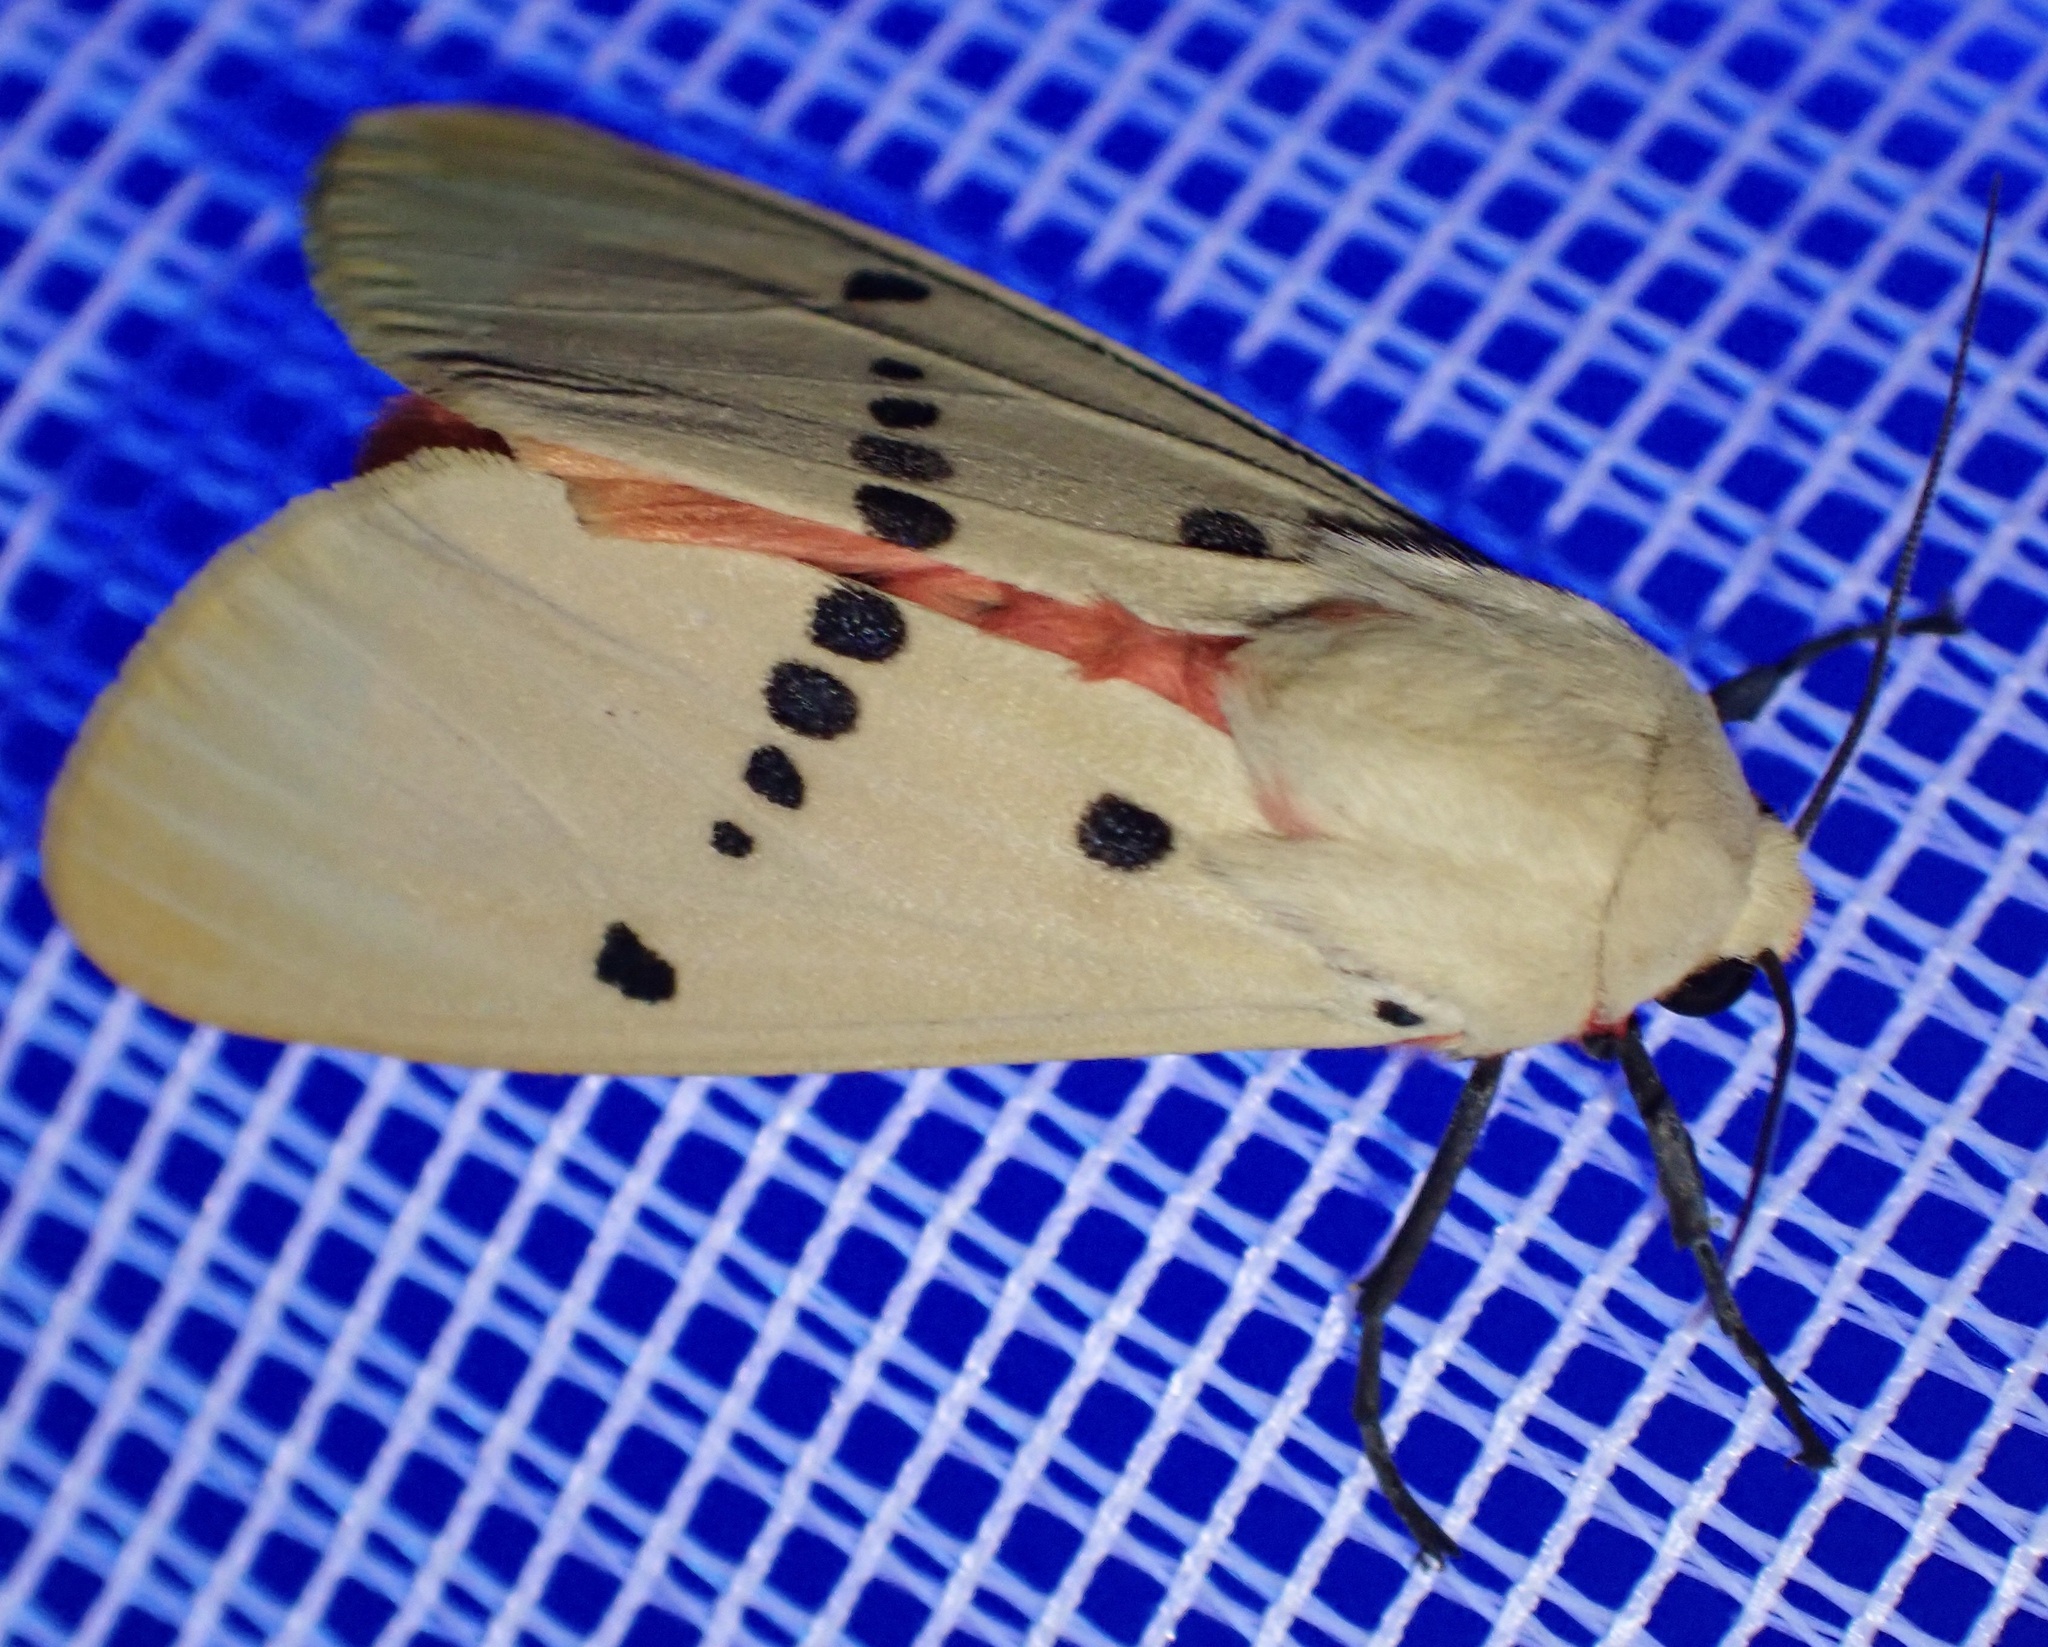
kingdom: Animalia
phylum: Arthropoda
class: Insecta
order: Lepidoptera
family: Erebidae
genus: Nicetosoma
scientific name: Nicetosoma
